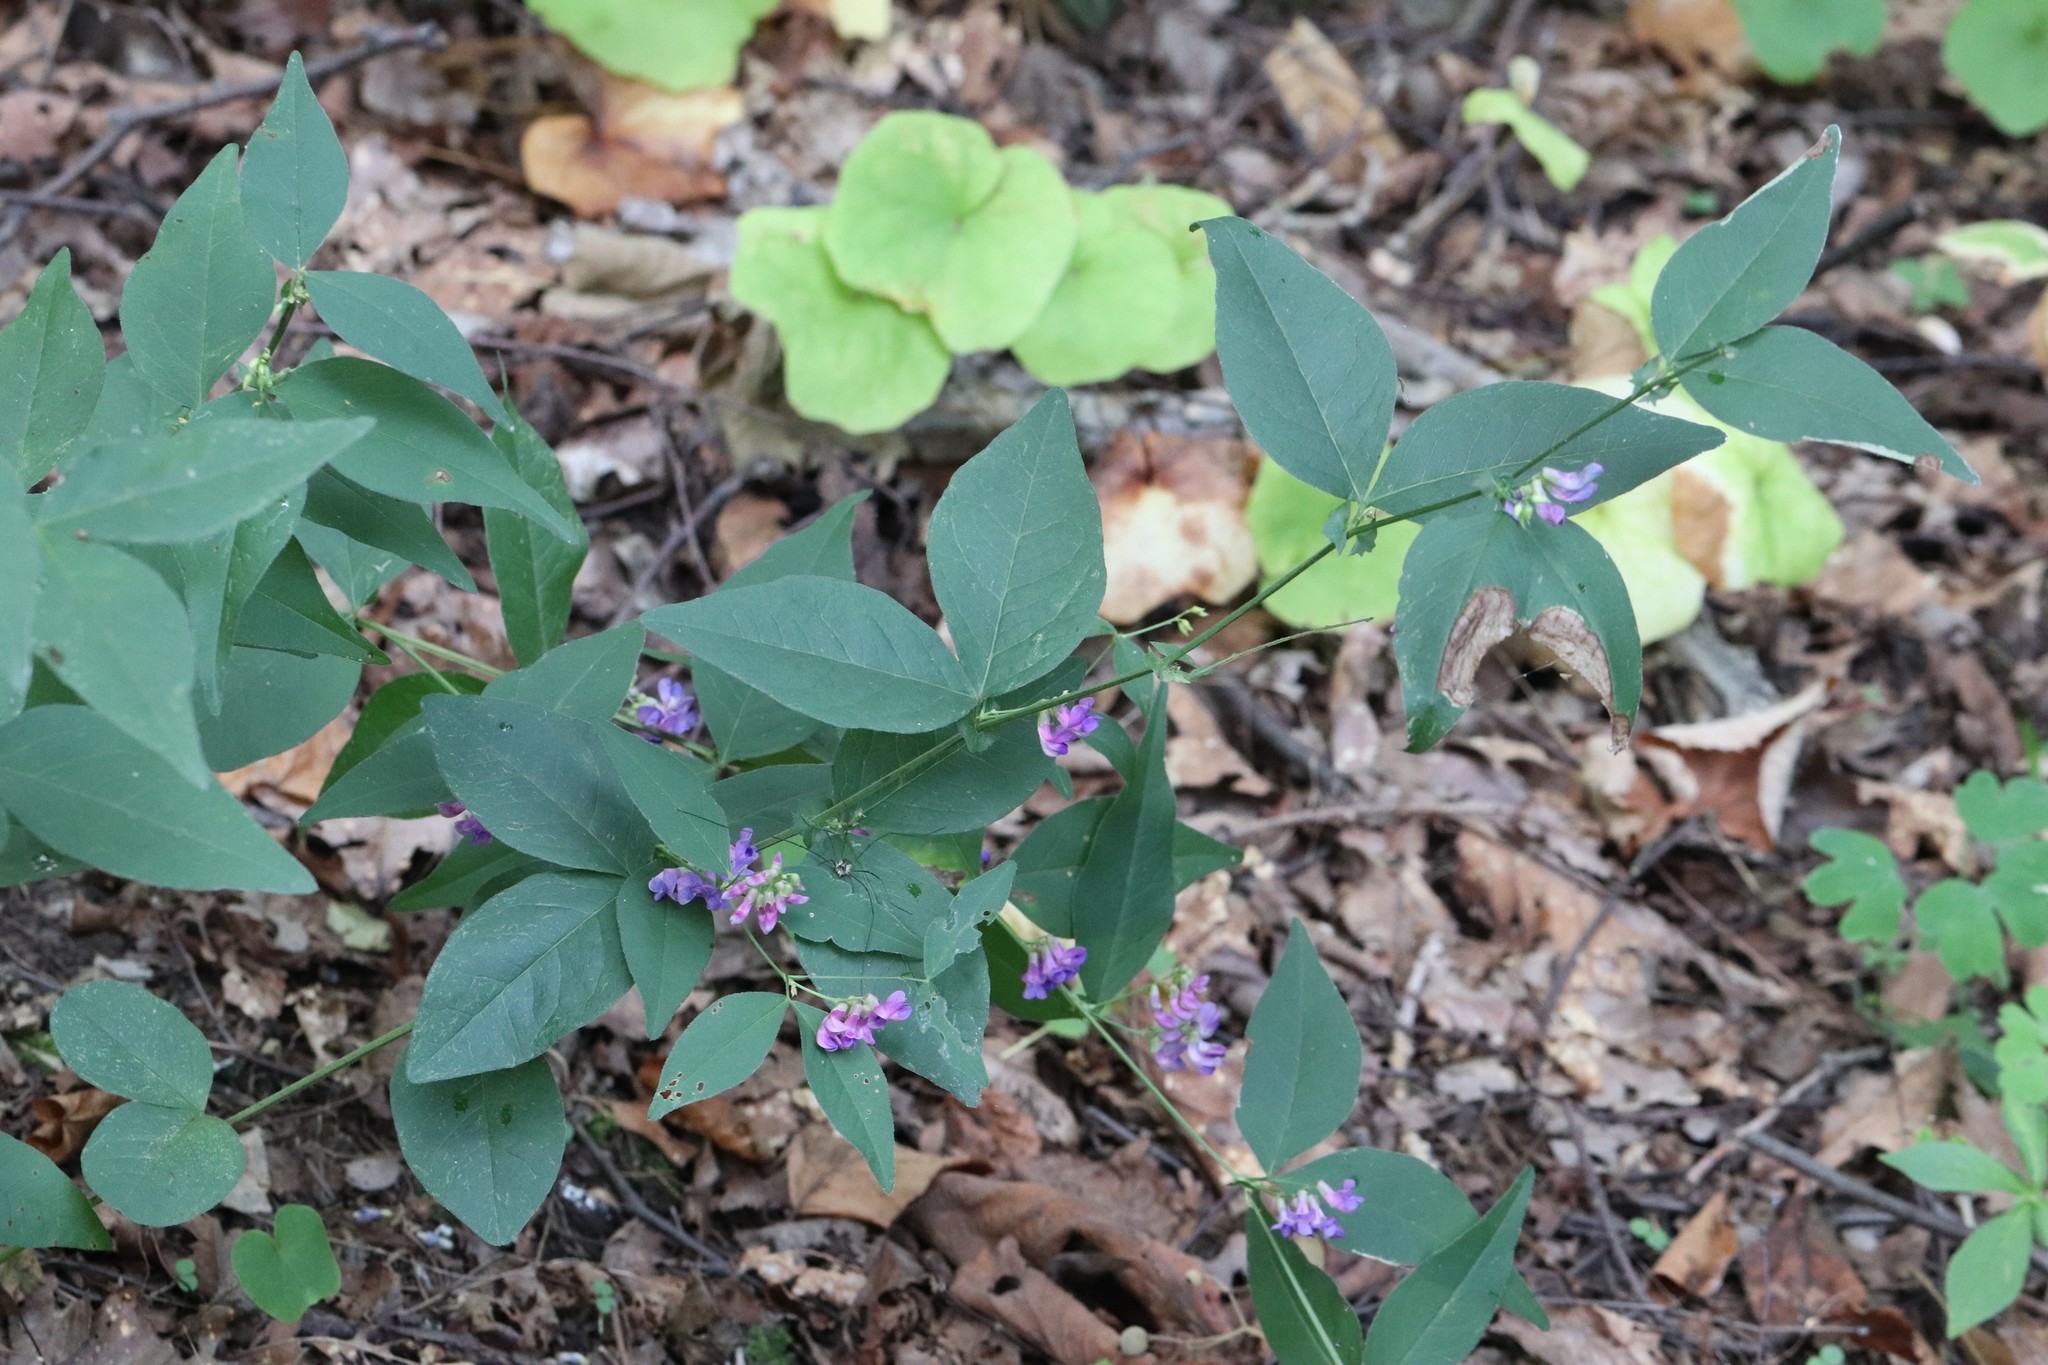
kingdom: Plantae
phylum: Tracheophyta
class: Magnoliopsida
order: Fabales
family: Fabaceae
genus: Vicia
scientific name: Vicia unijuga
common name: Two-leaf vetch
